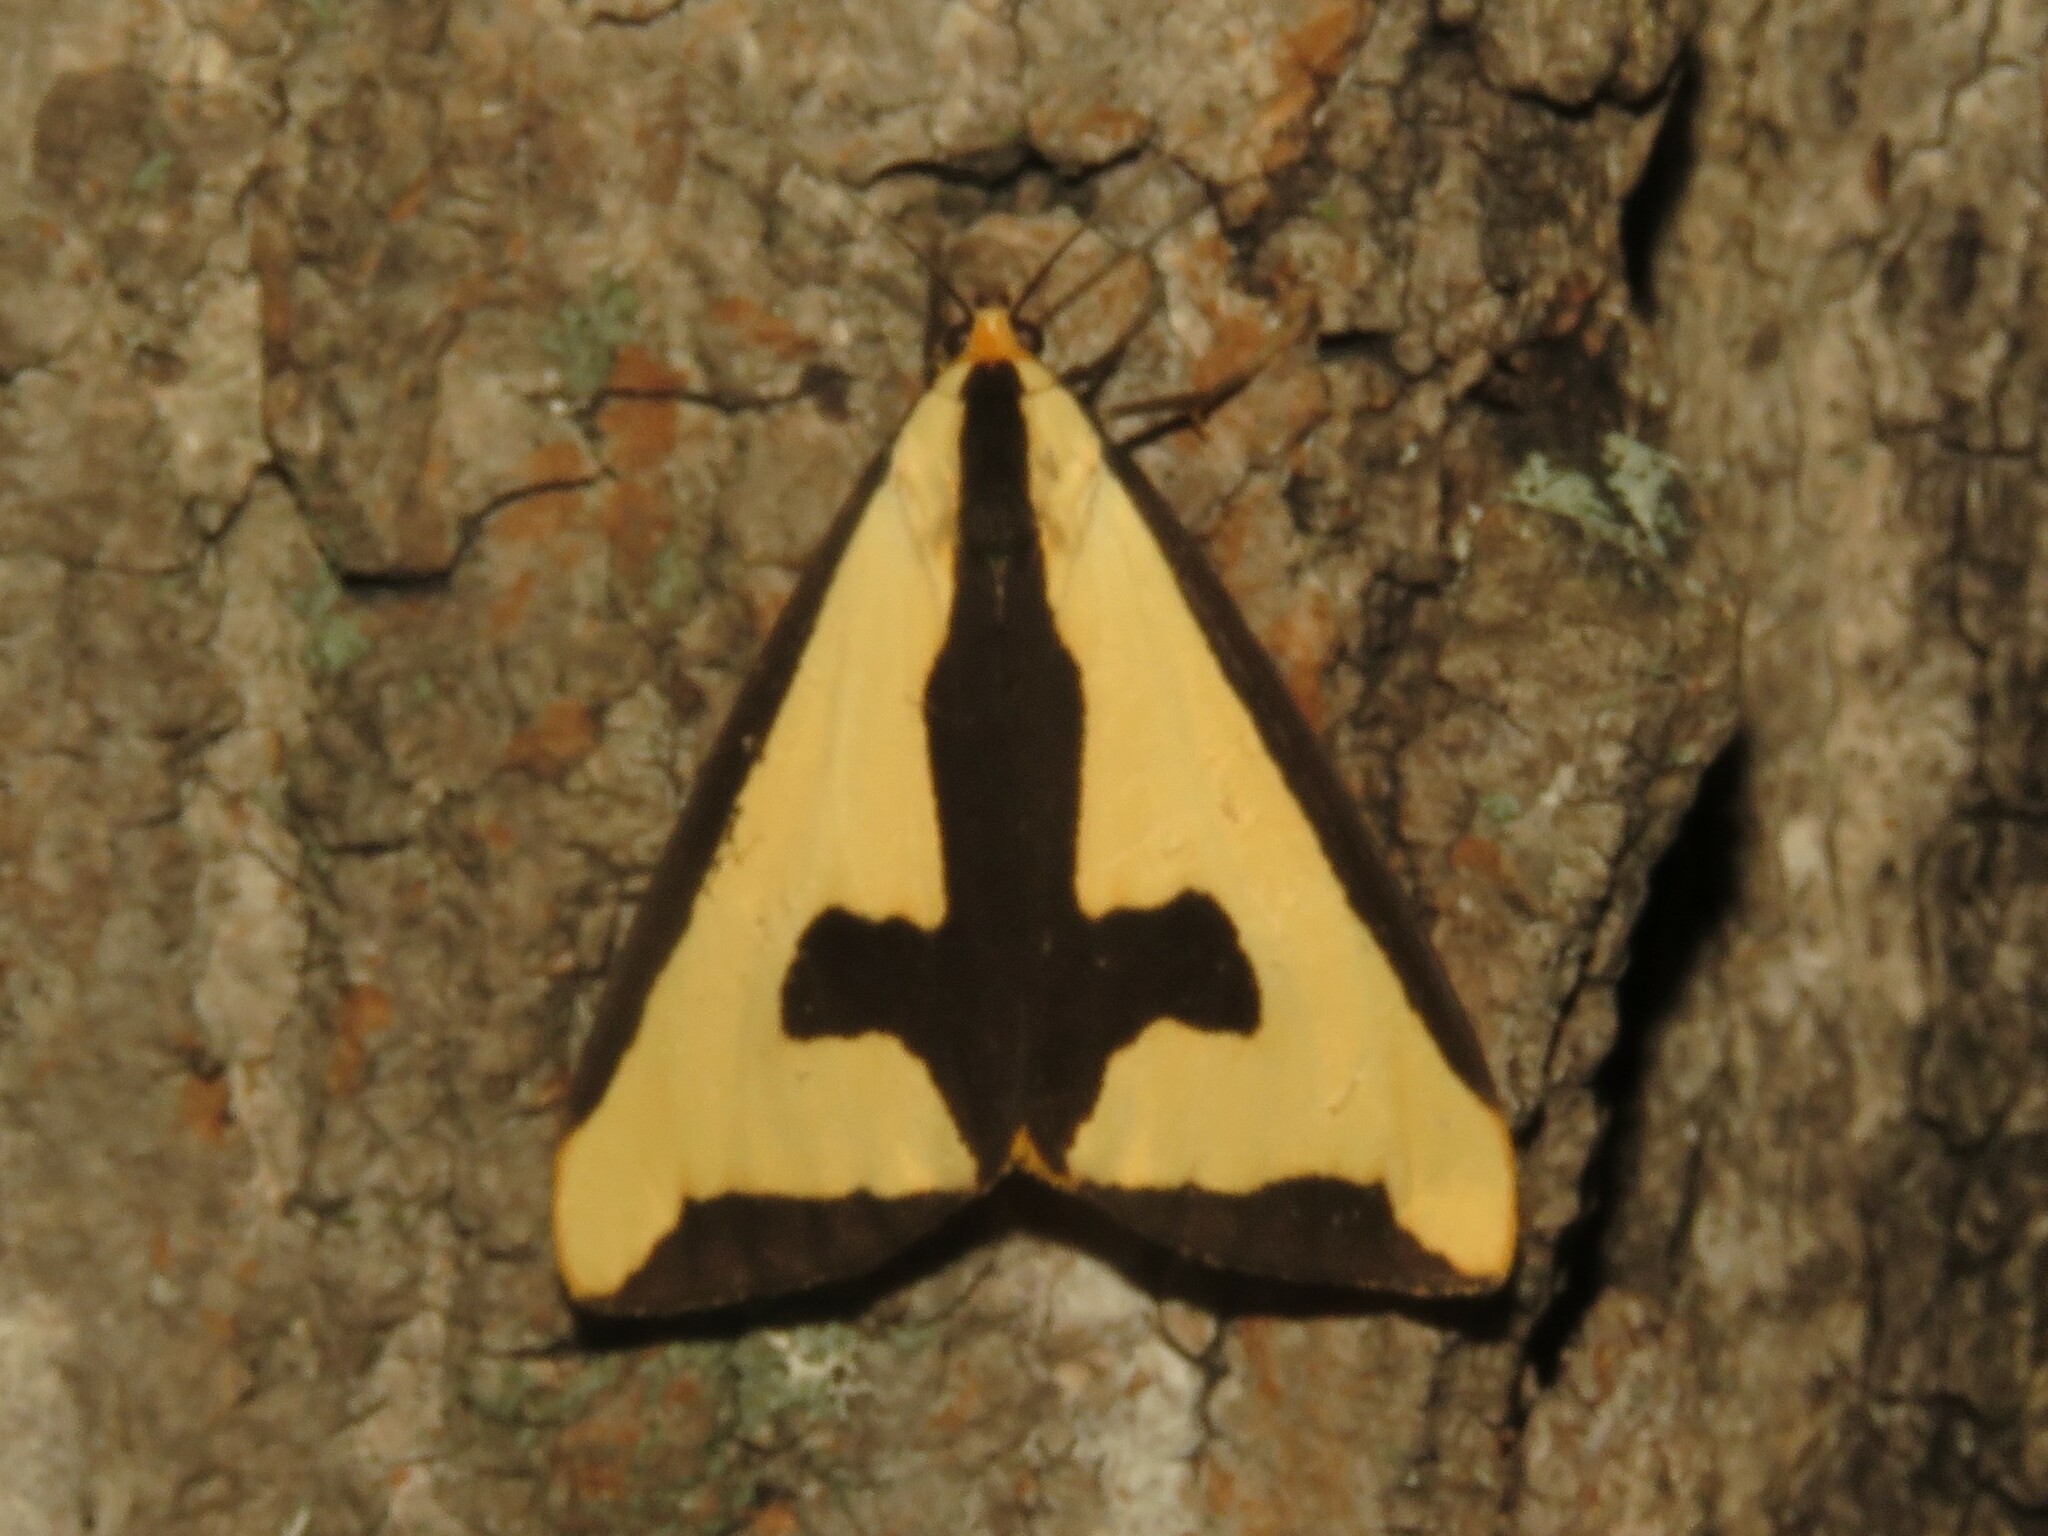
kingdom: Animalia
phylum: Arthropoda
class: Insecta
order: Lepidoptera
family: Erebidae
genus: Haploa
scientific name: Haploa clymene
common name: Clymene moth
